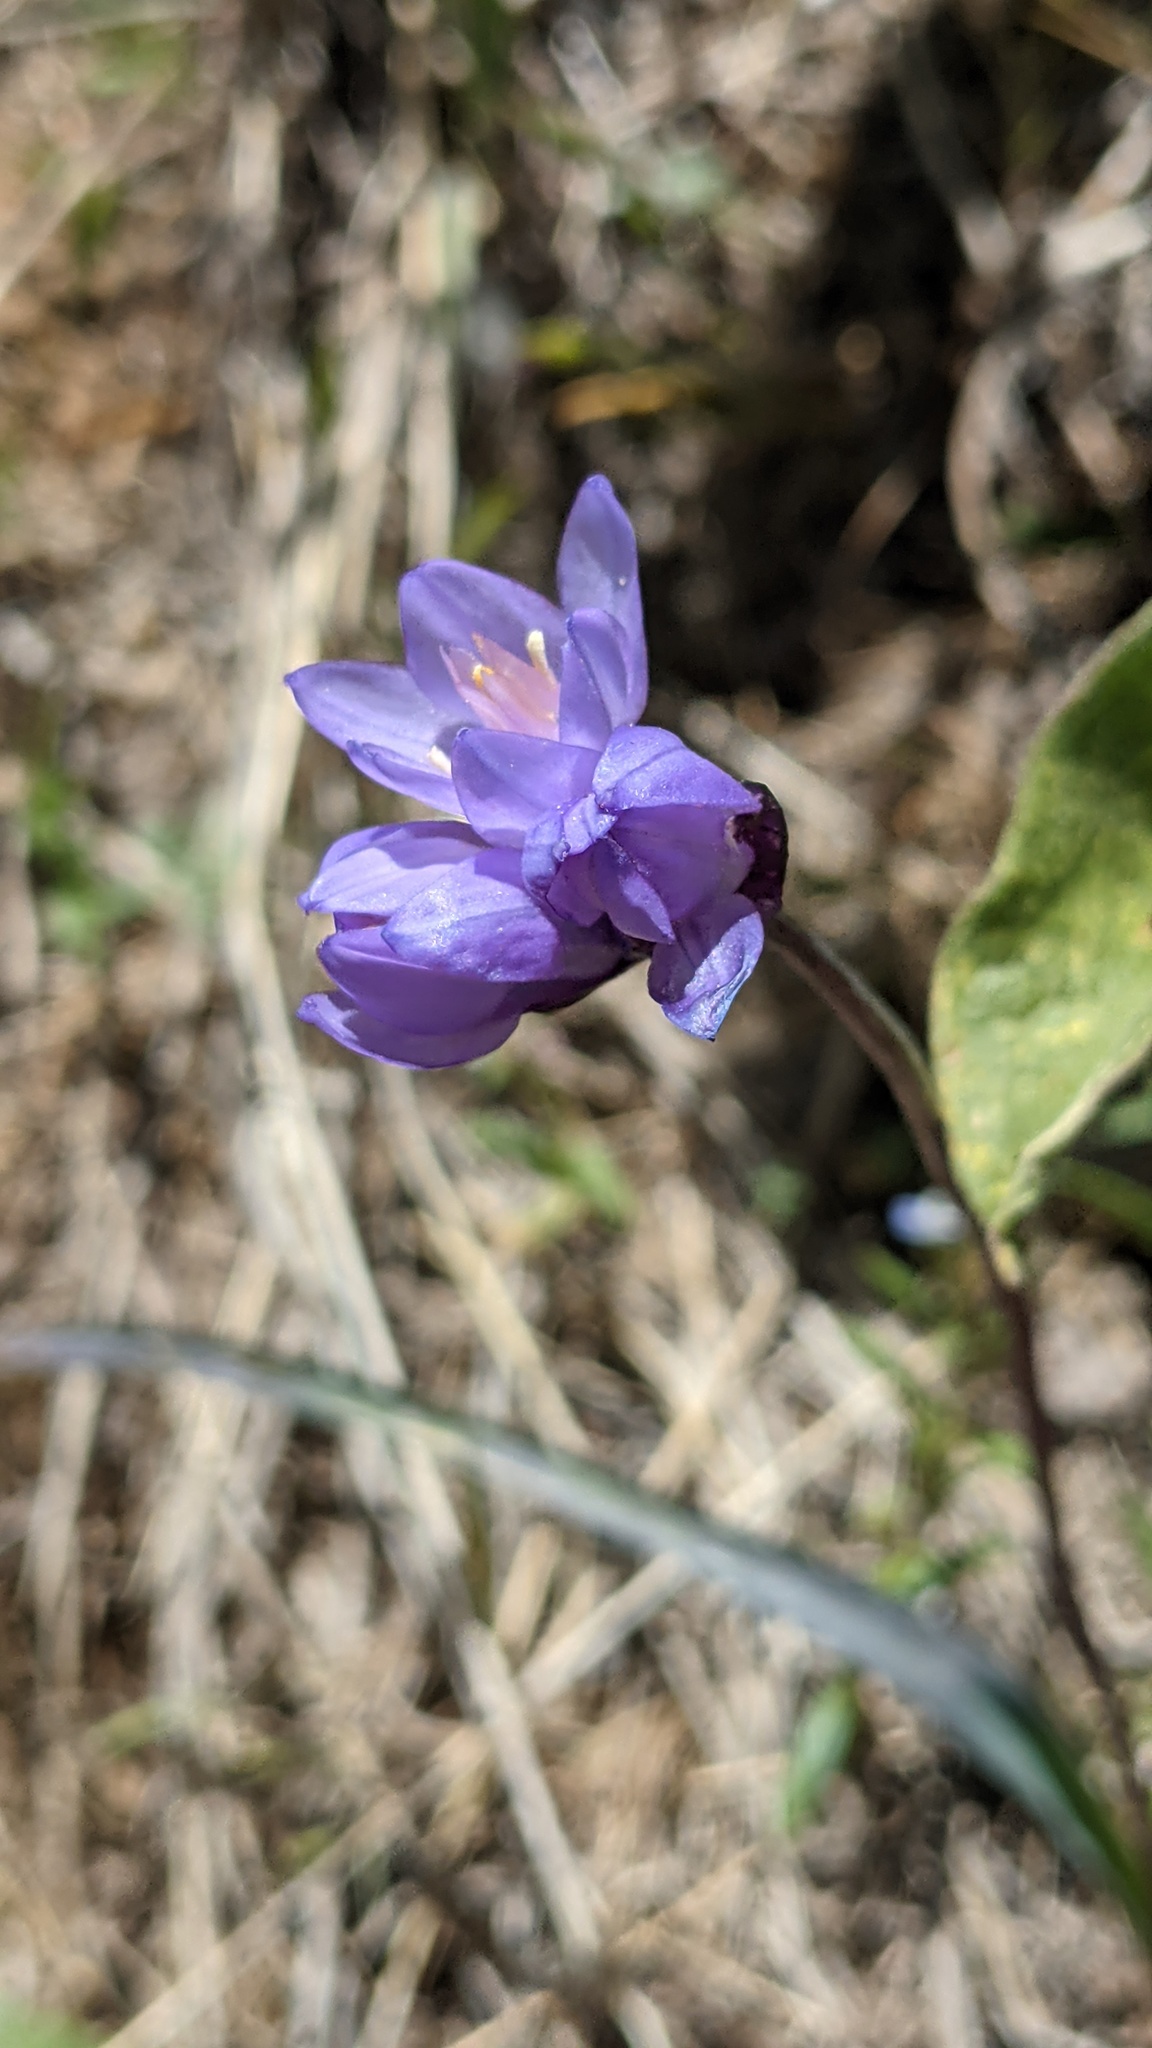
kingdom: Plantae
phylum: Tracheophyta
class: Liliopsida
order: Asparagales
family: Asparagaceae
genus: Dipterostemon
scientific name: Dipterostemon capitatus
